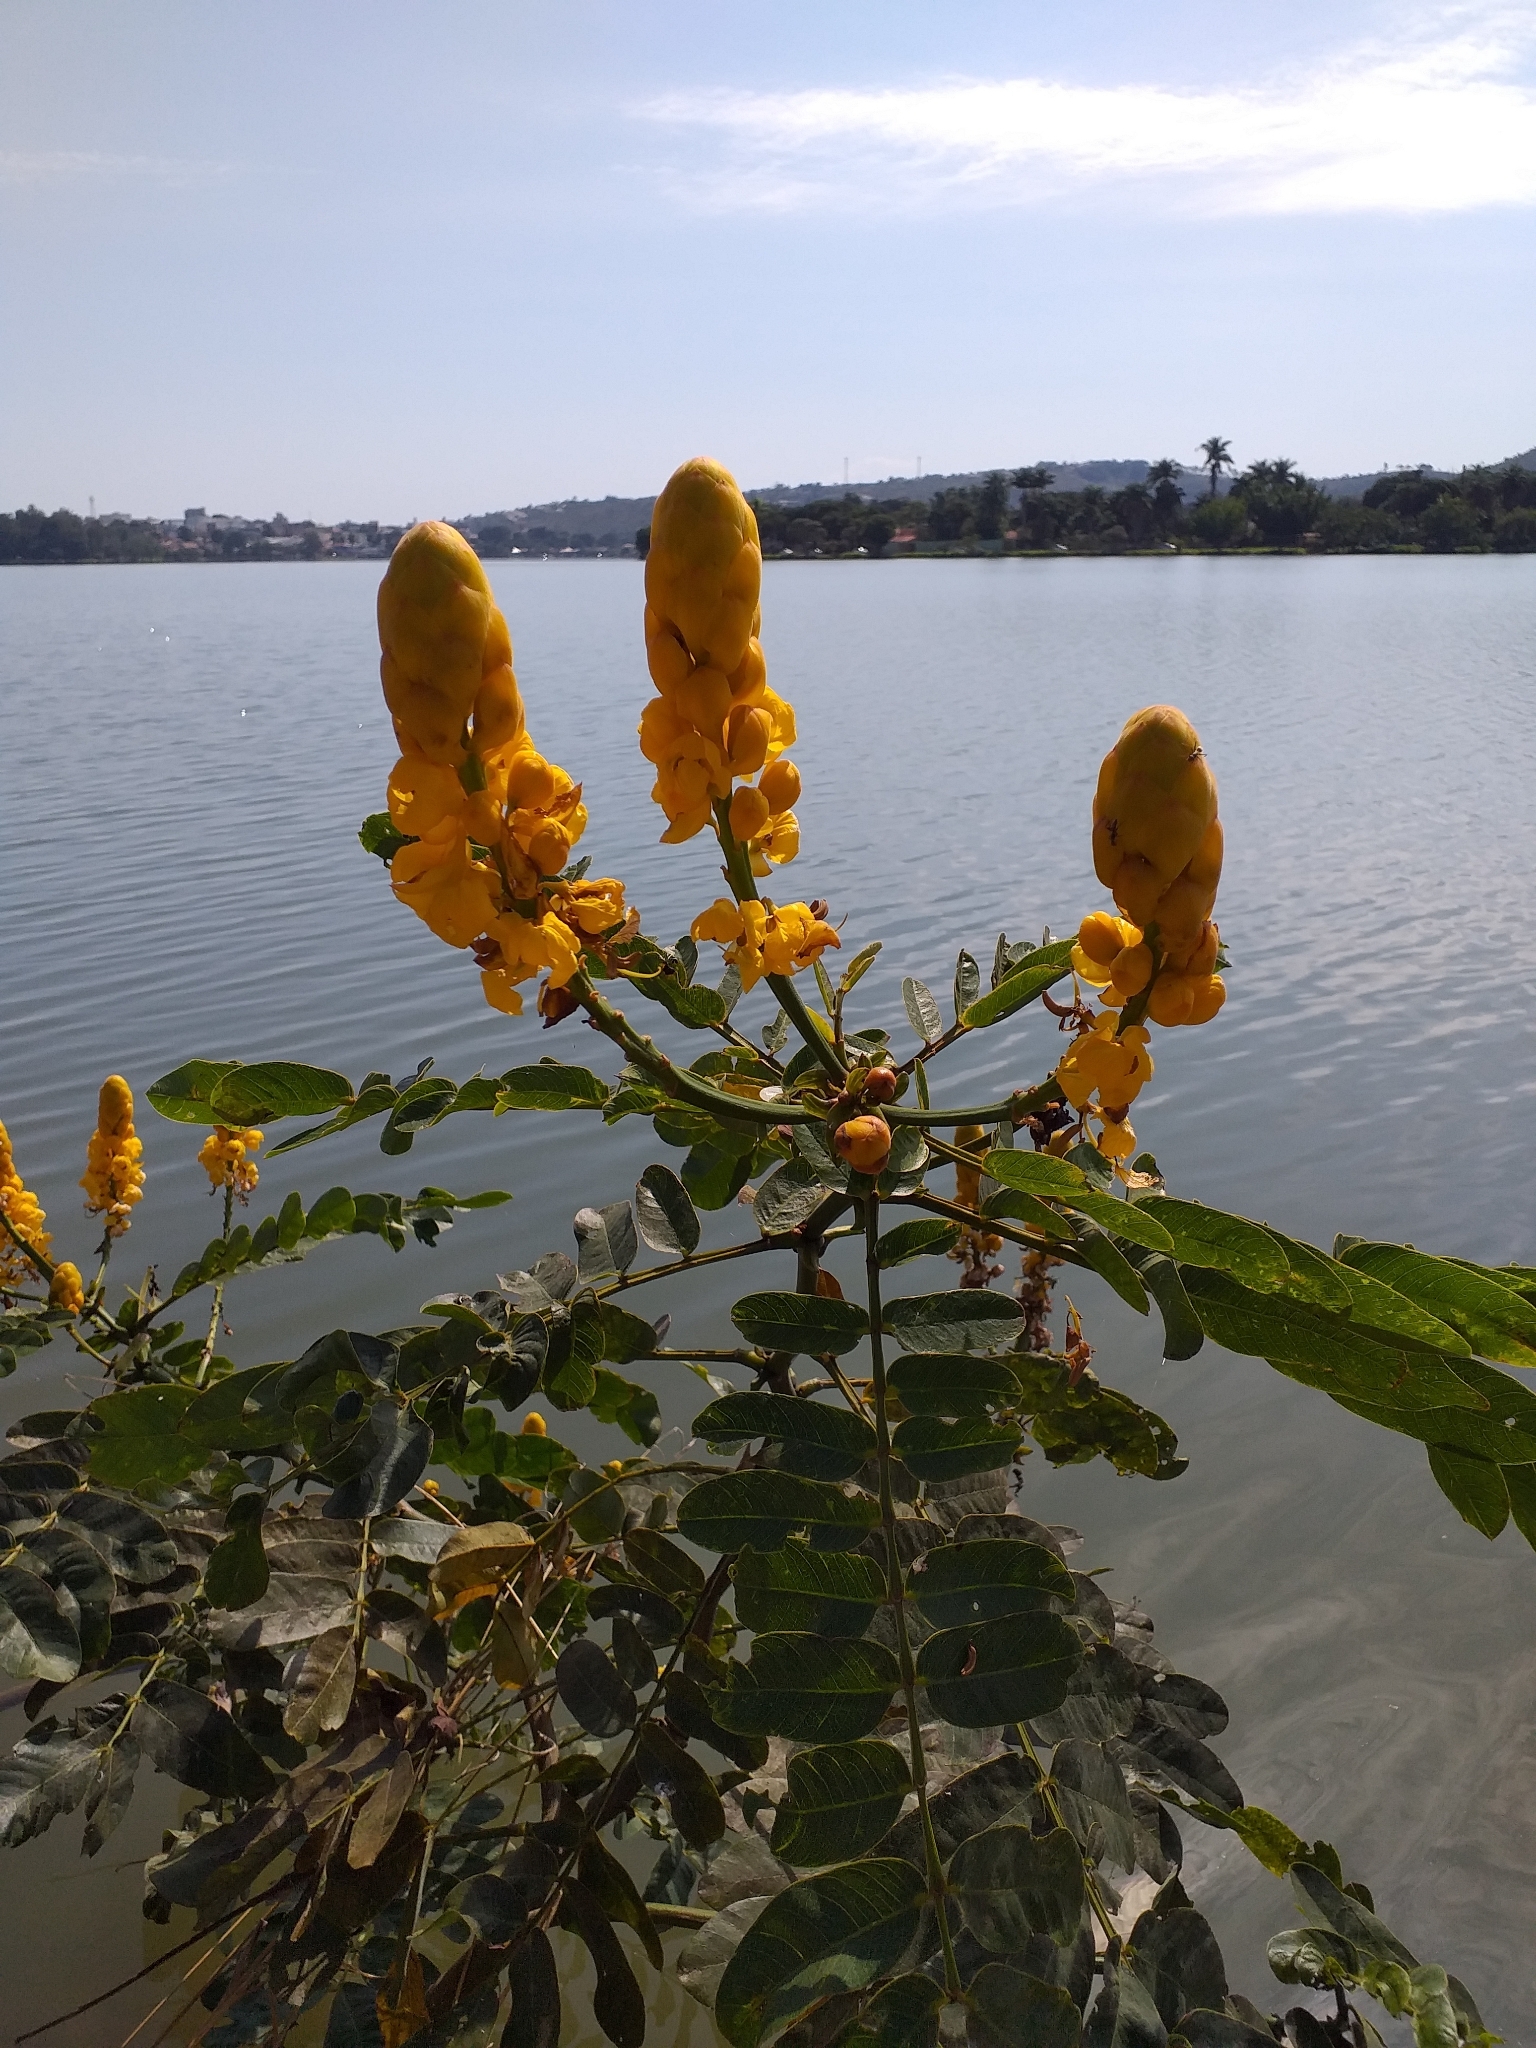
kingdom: Plantae
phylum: Tracheophyta
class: Magnoliopsida
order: Fabales
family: Fabaceae
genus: Senna
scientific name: Senna alata
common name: Emperor's candlesticks
